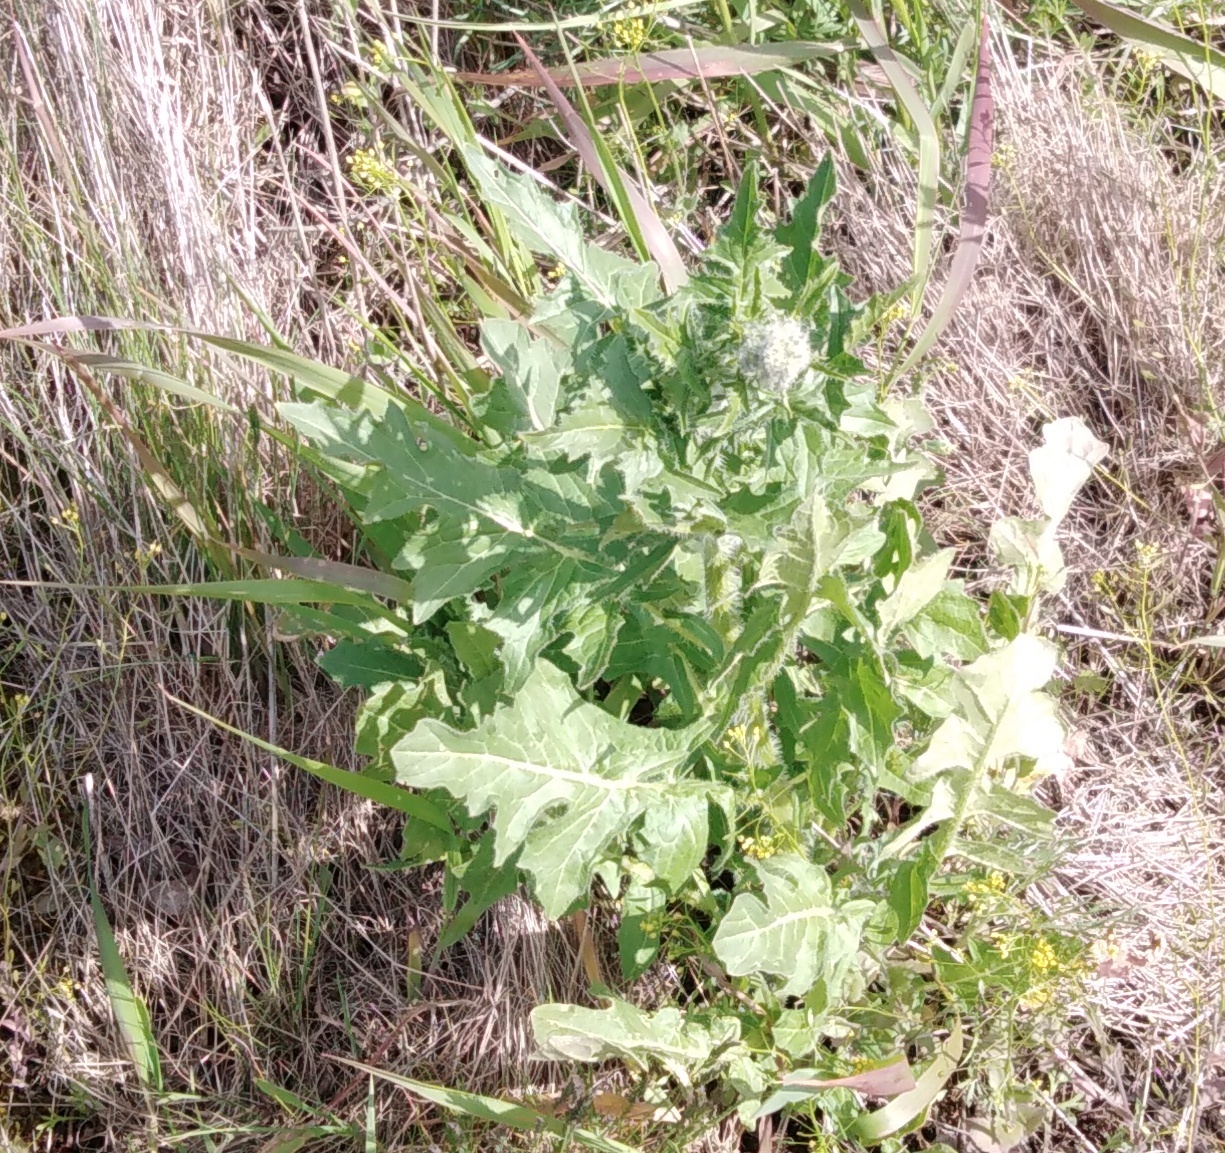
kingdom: Plantae
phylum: Tracheophyta
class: Magnoliopsida
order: Brassicales
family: Brassicaceae
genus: Sisymbrium
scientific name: Sisymbrium loeselii
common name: False london-rocket
